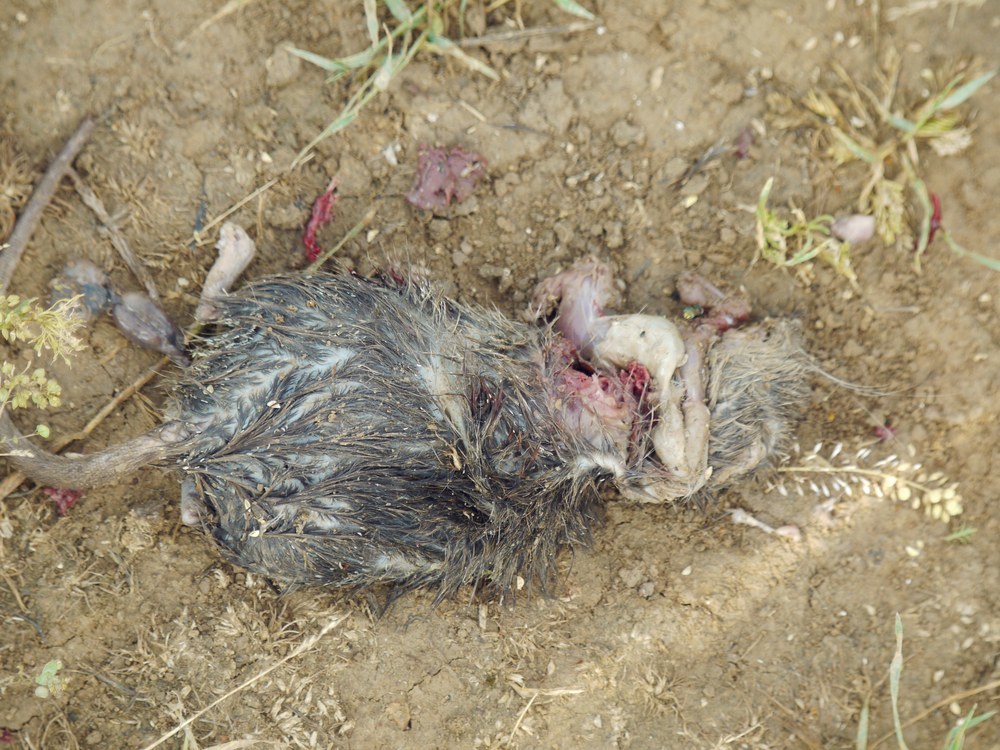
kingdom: Animalia
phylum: Chordata
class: Mammalia
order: Rodentia
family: Muridae
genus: Rattus
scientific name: Rattus norvegicus
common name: Brown rat
